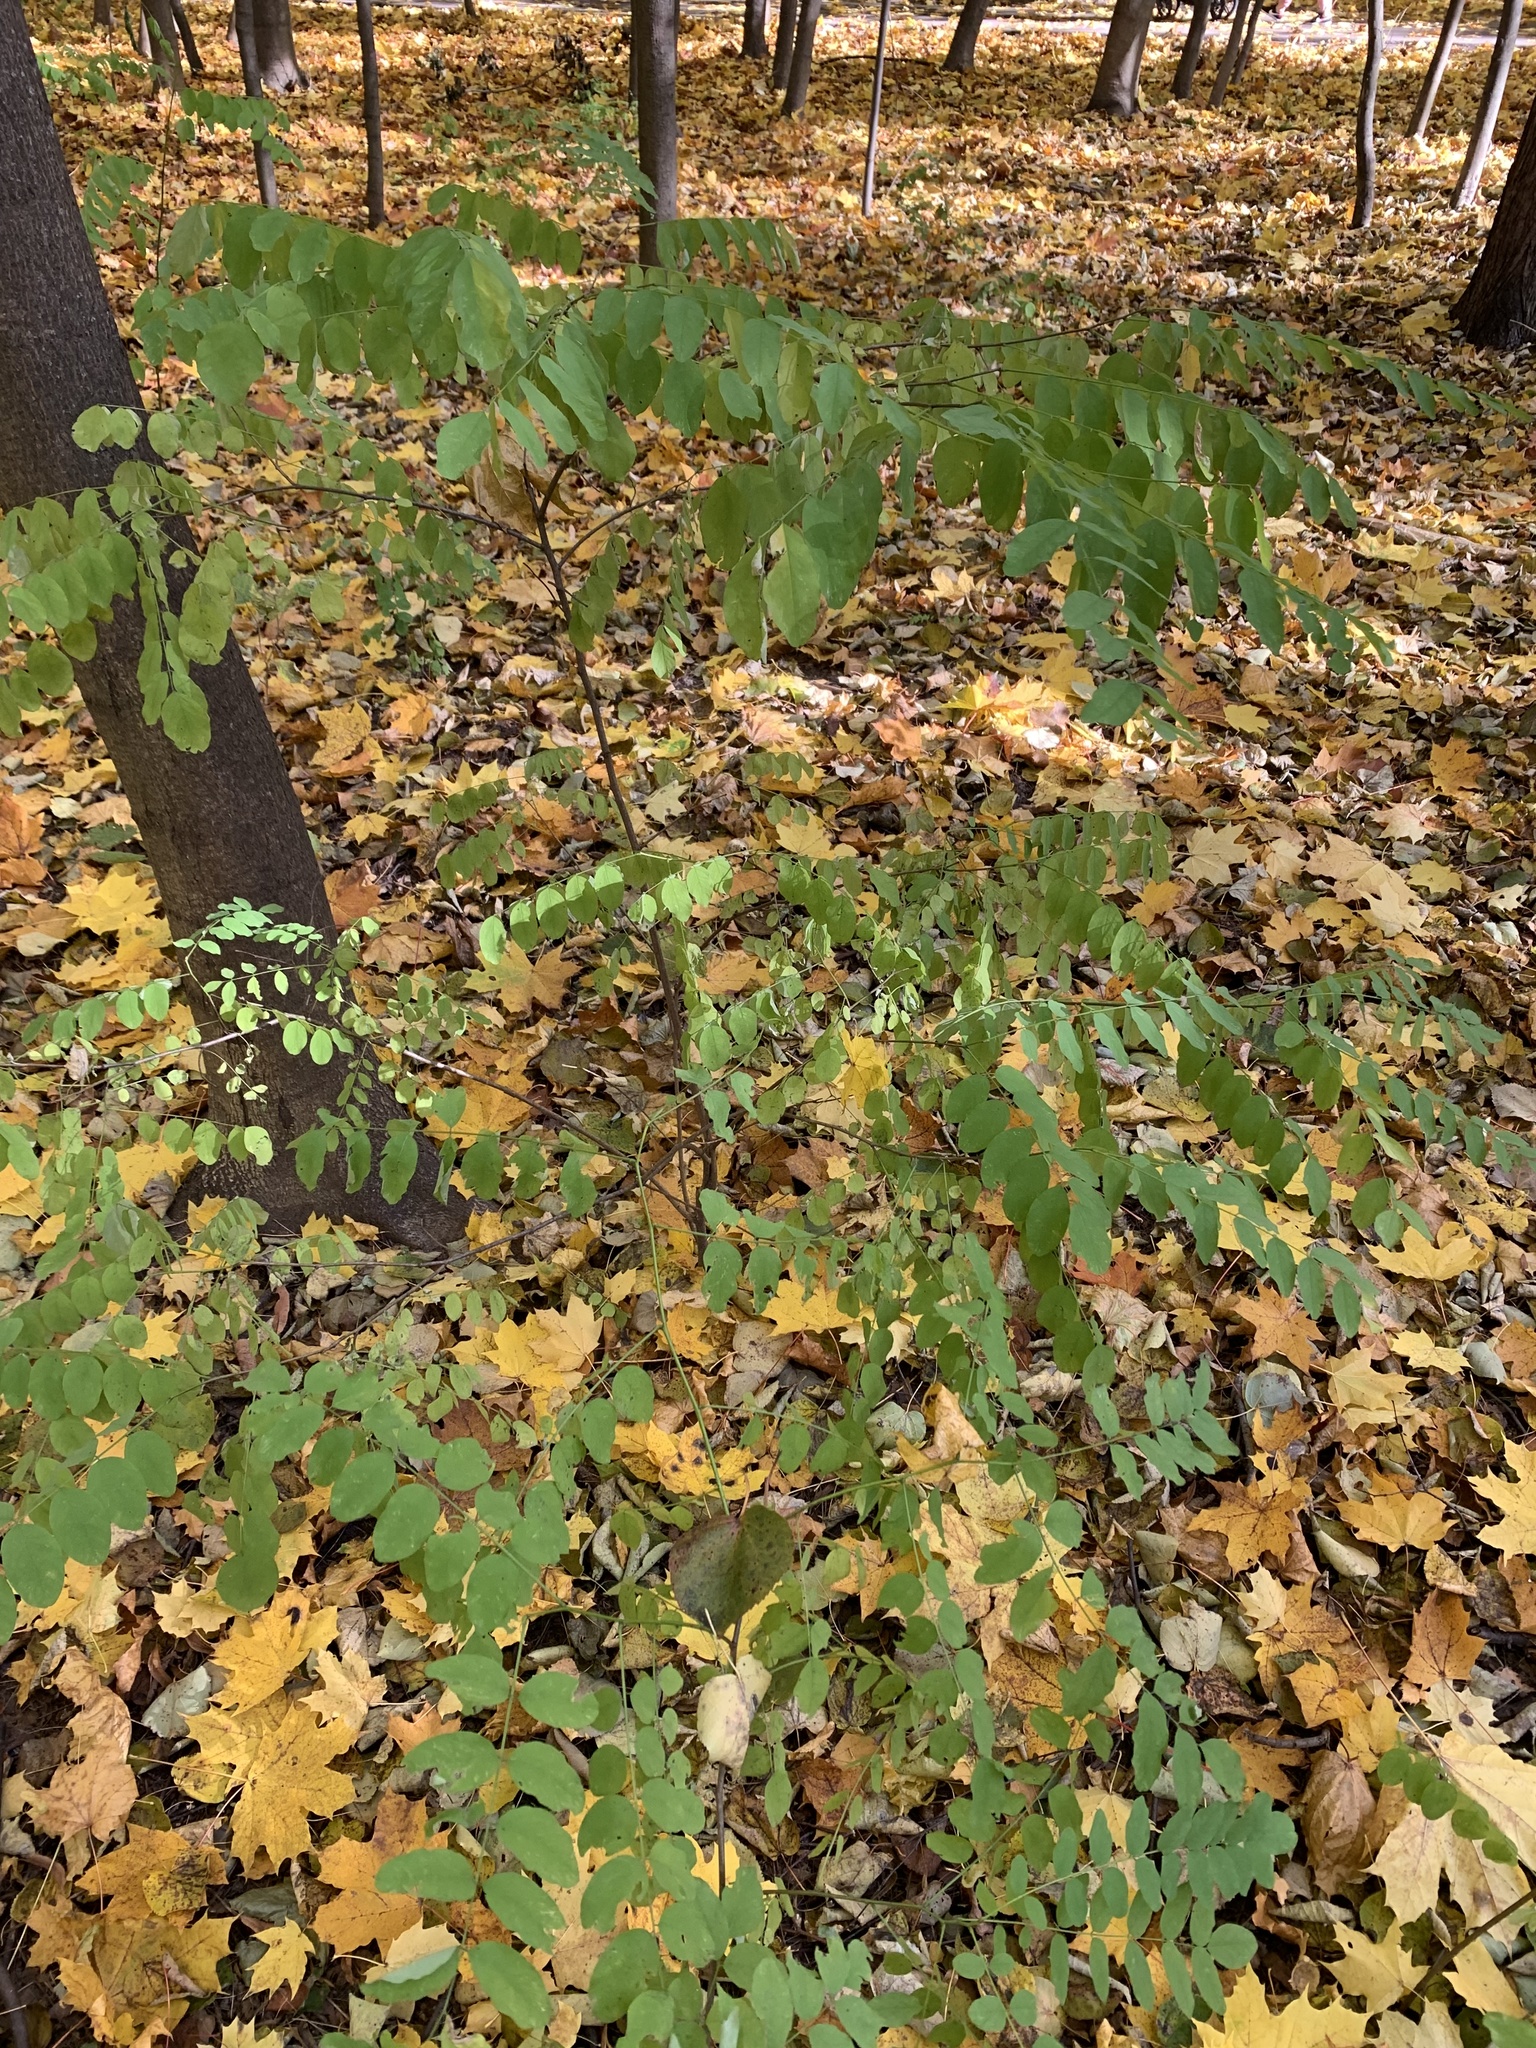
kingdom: Plantae
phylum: Tracheophyta
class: Magnoliopsida
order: Fabales
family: Fabaceae
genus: Robinia
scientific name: Robinia pseudoacacia
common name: Black locust
